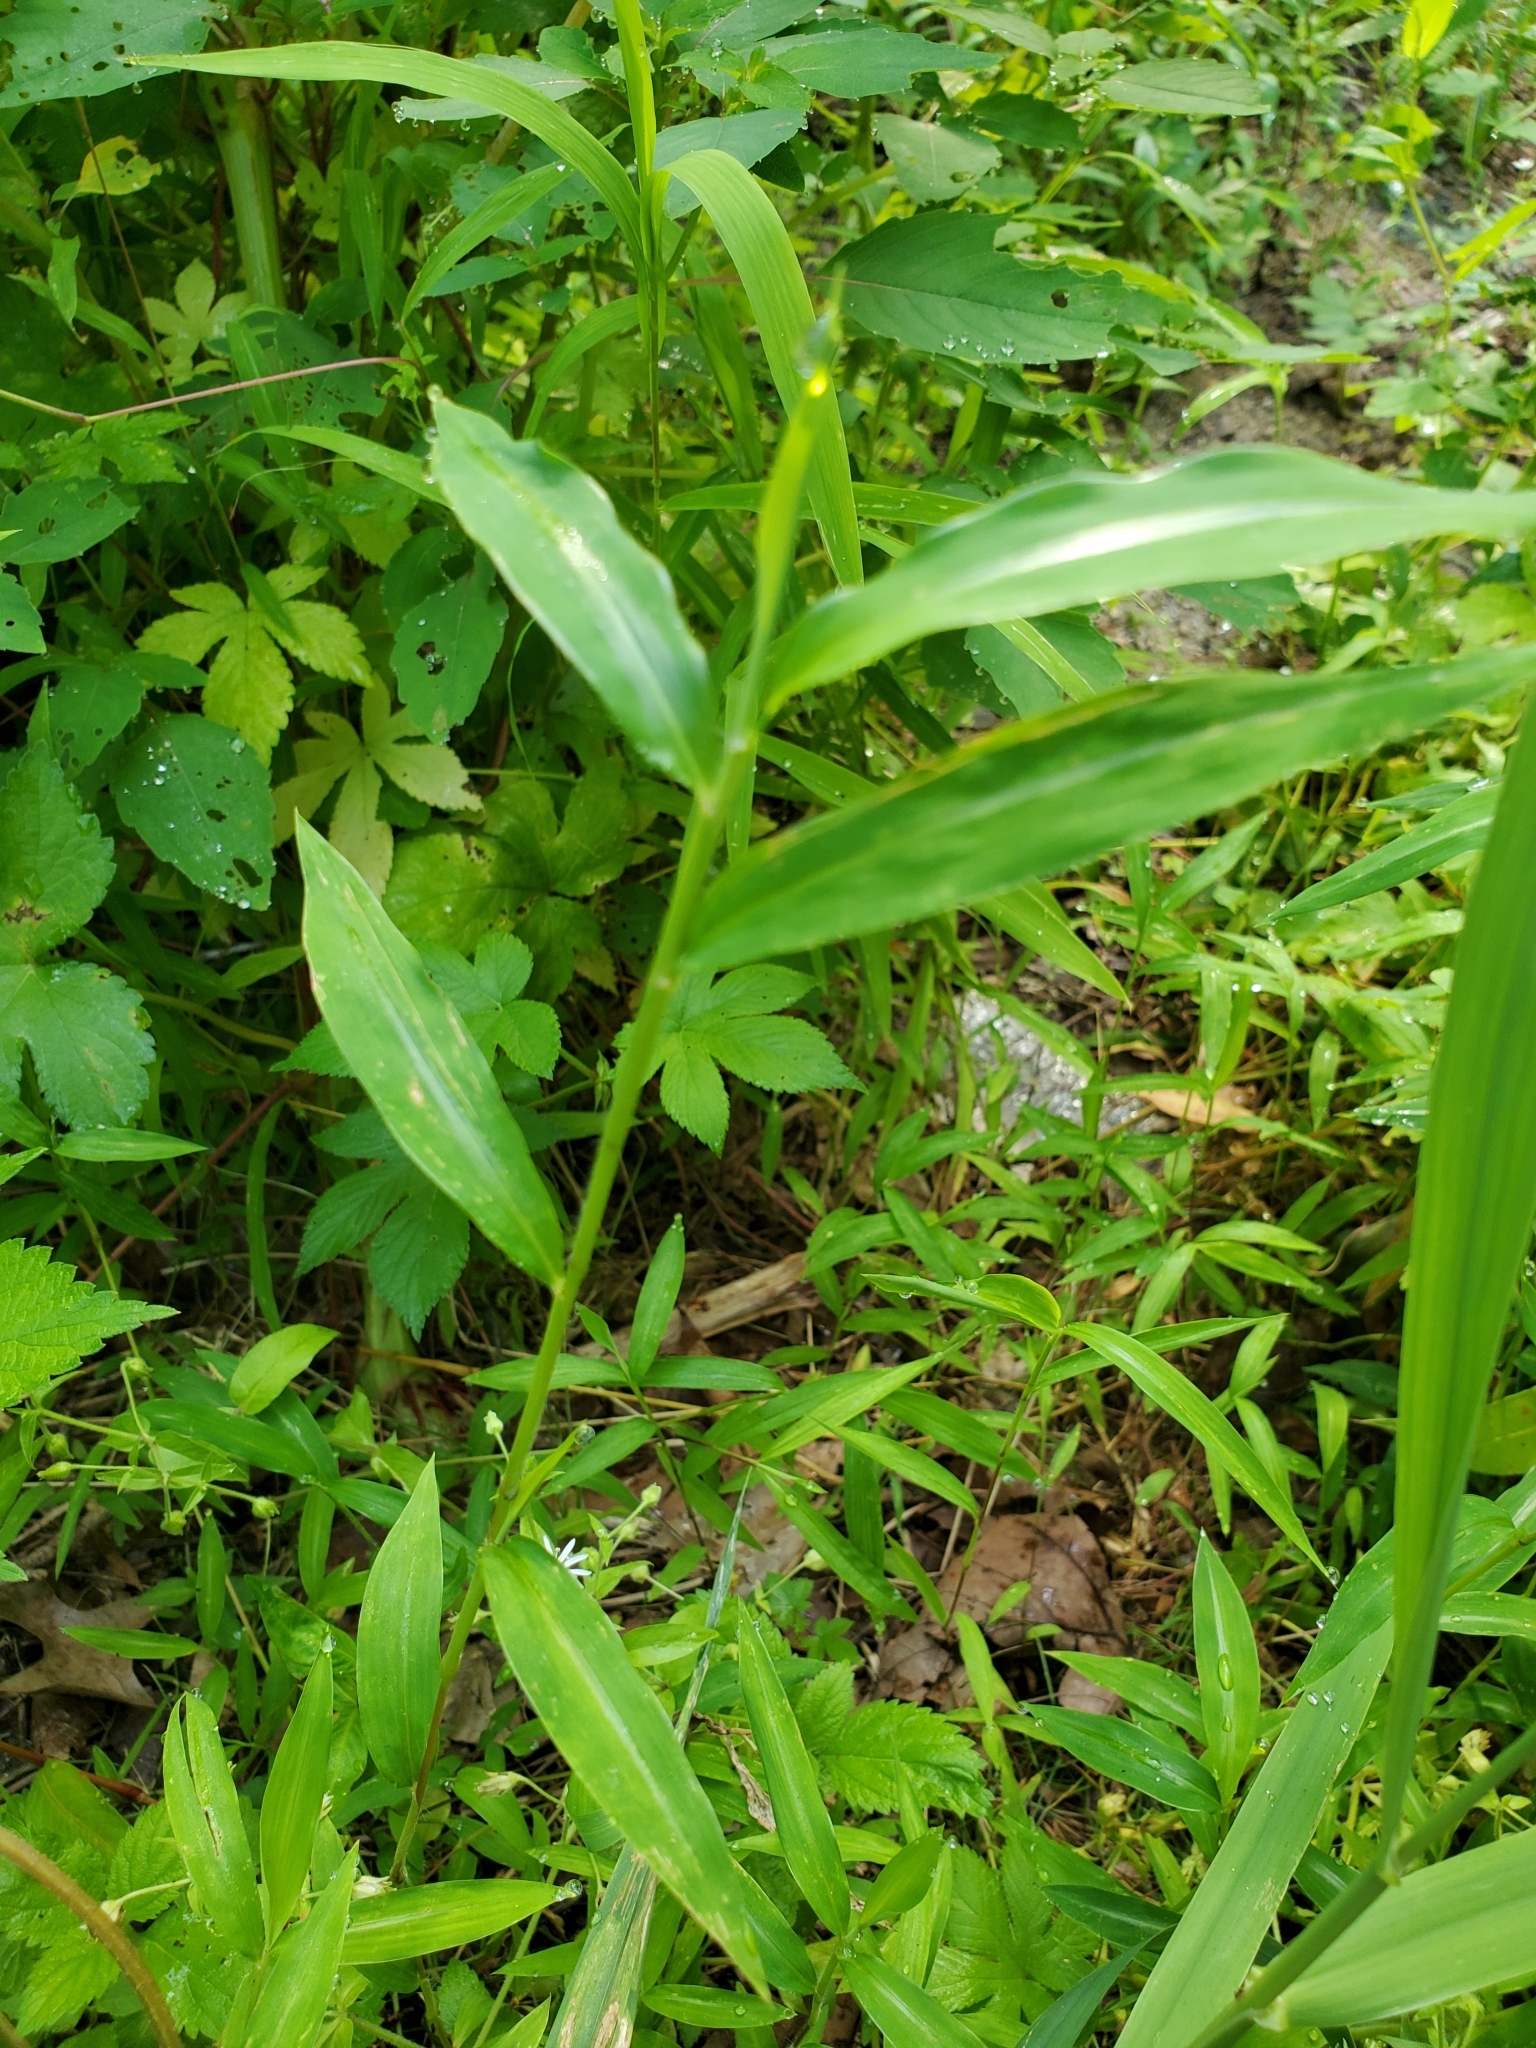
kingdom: Plantae
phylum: Tracheophyta
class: Liliopsida
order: Poales
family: Poaceae
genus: Microstegium
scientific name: Microstegium vimineum
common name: Japanese stiltgrass
